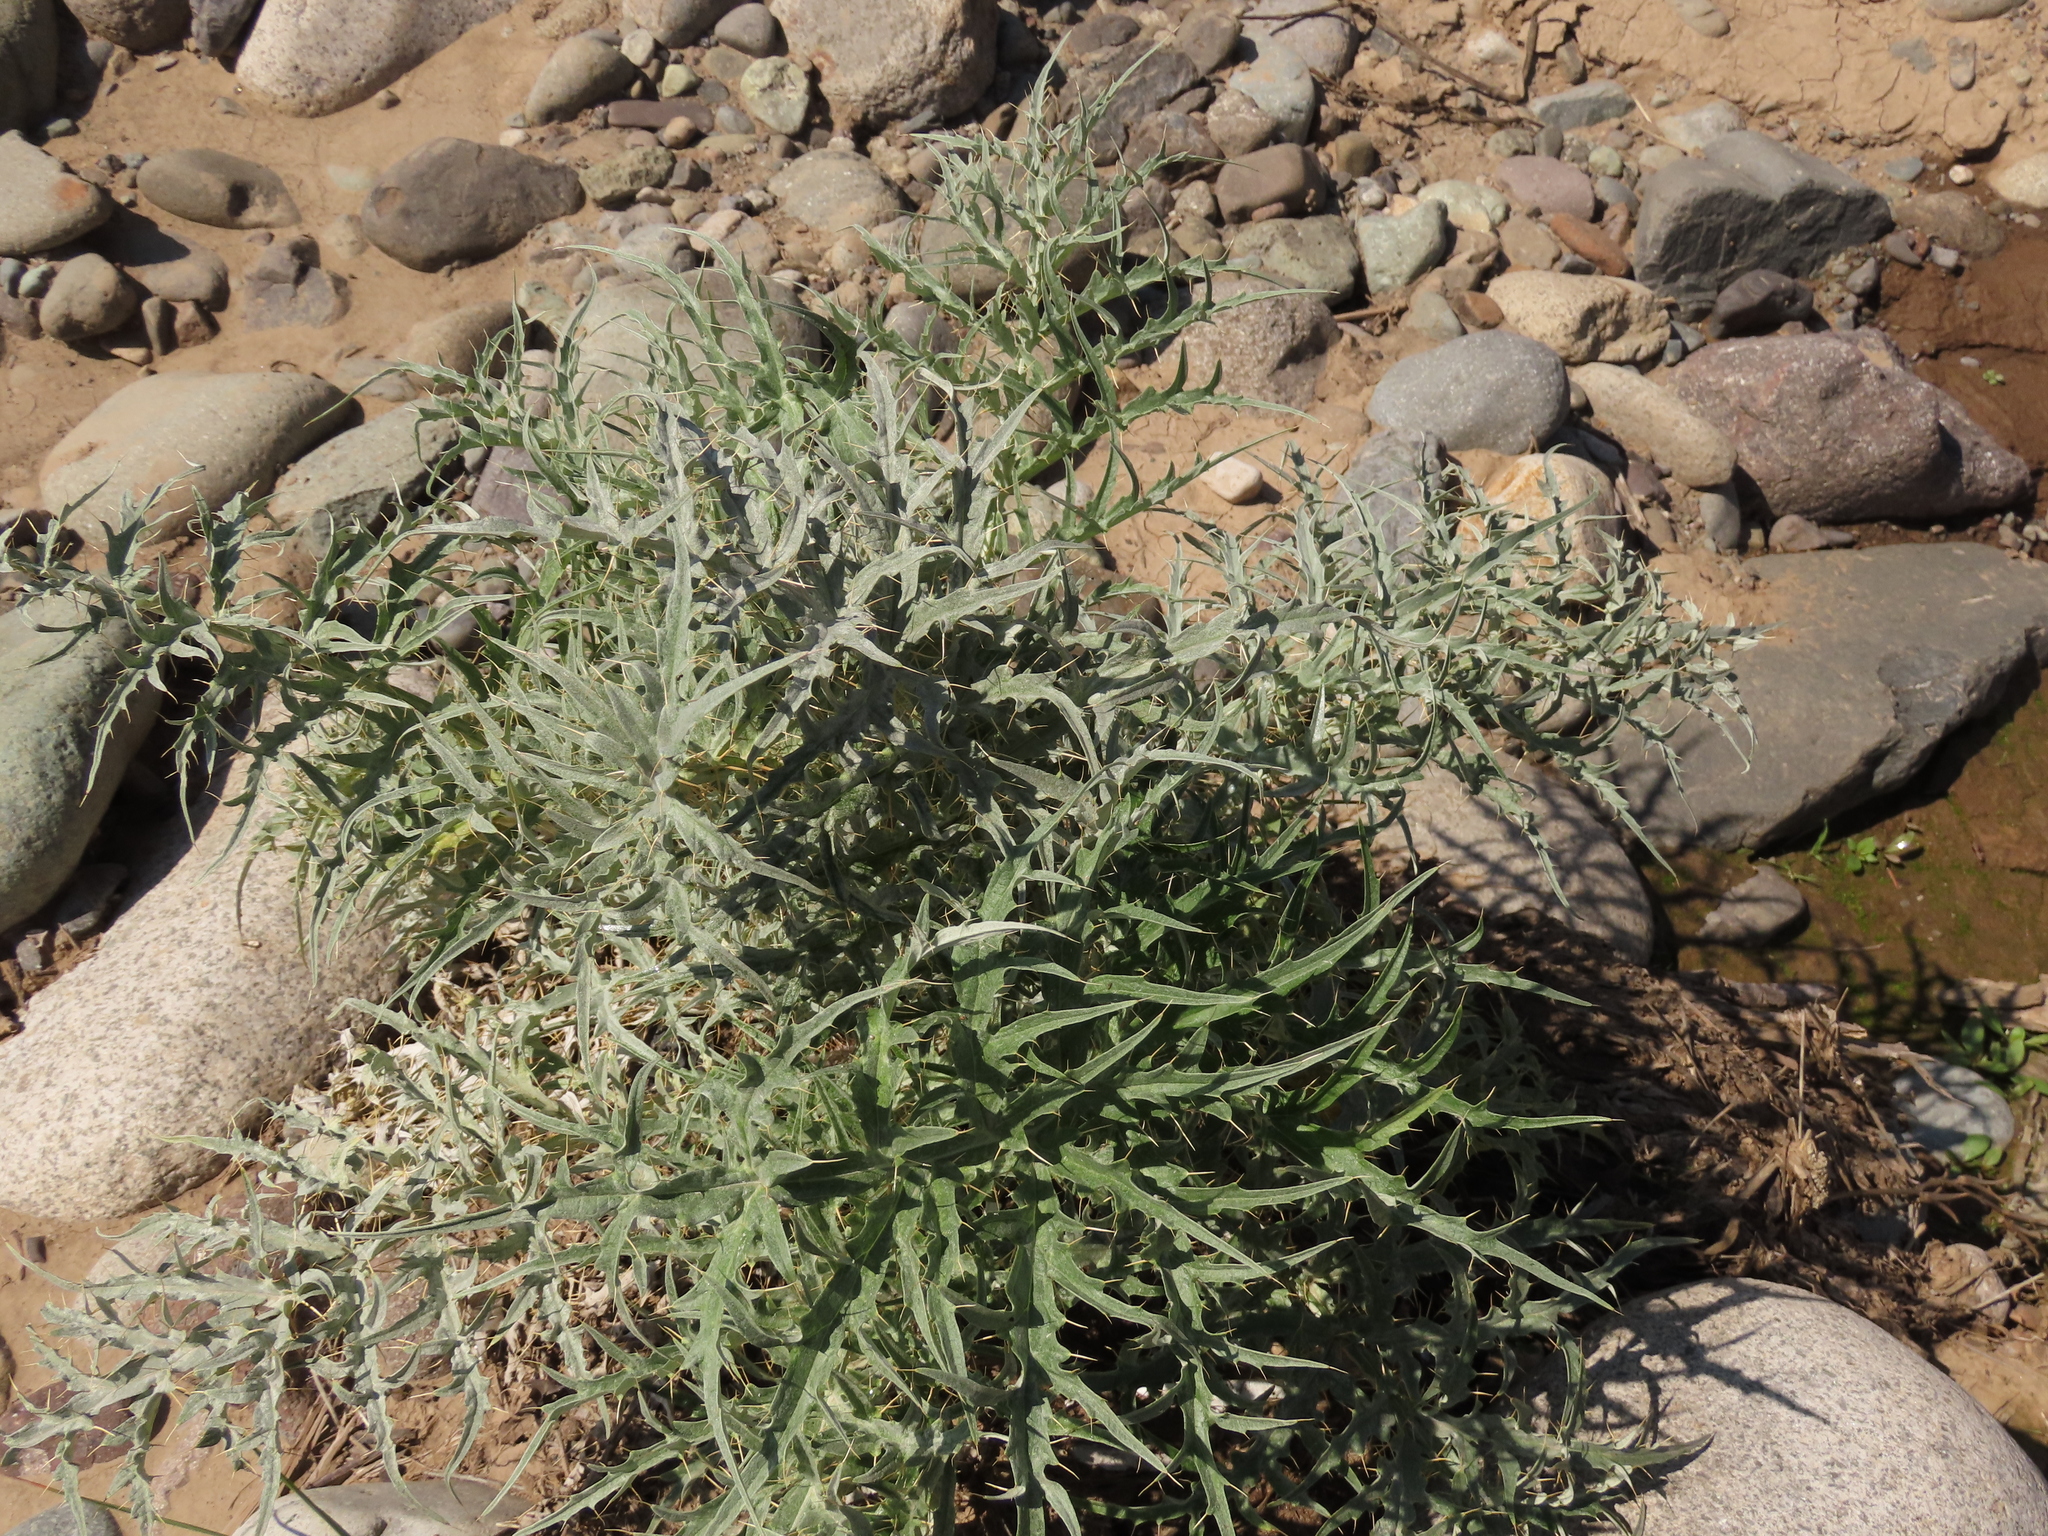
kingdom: Plantae
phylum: Tracheophyta
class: Magnoliopsida
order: Asterales
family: Asteraceae
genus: Cynara
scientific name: Cynara cardunculus
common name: Globe artichoke
